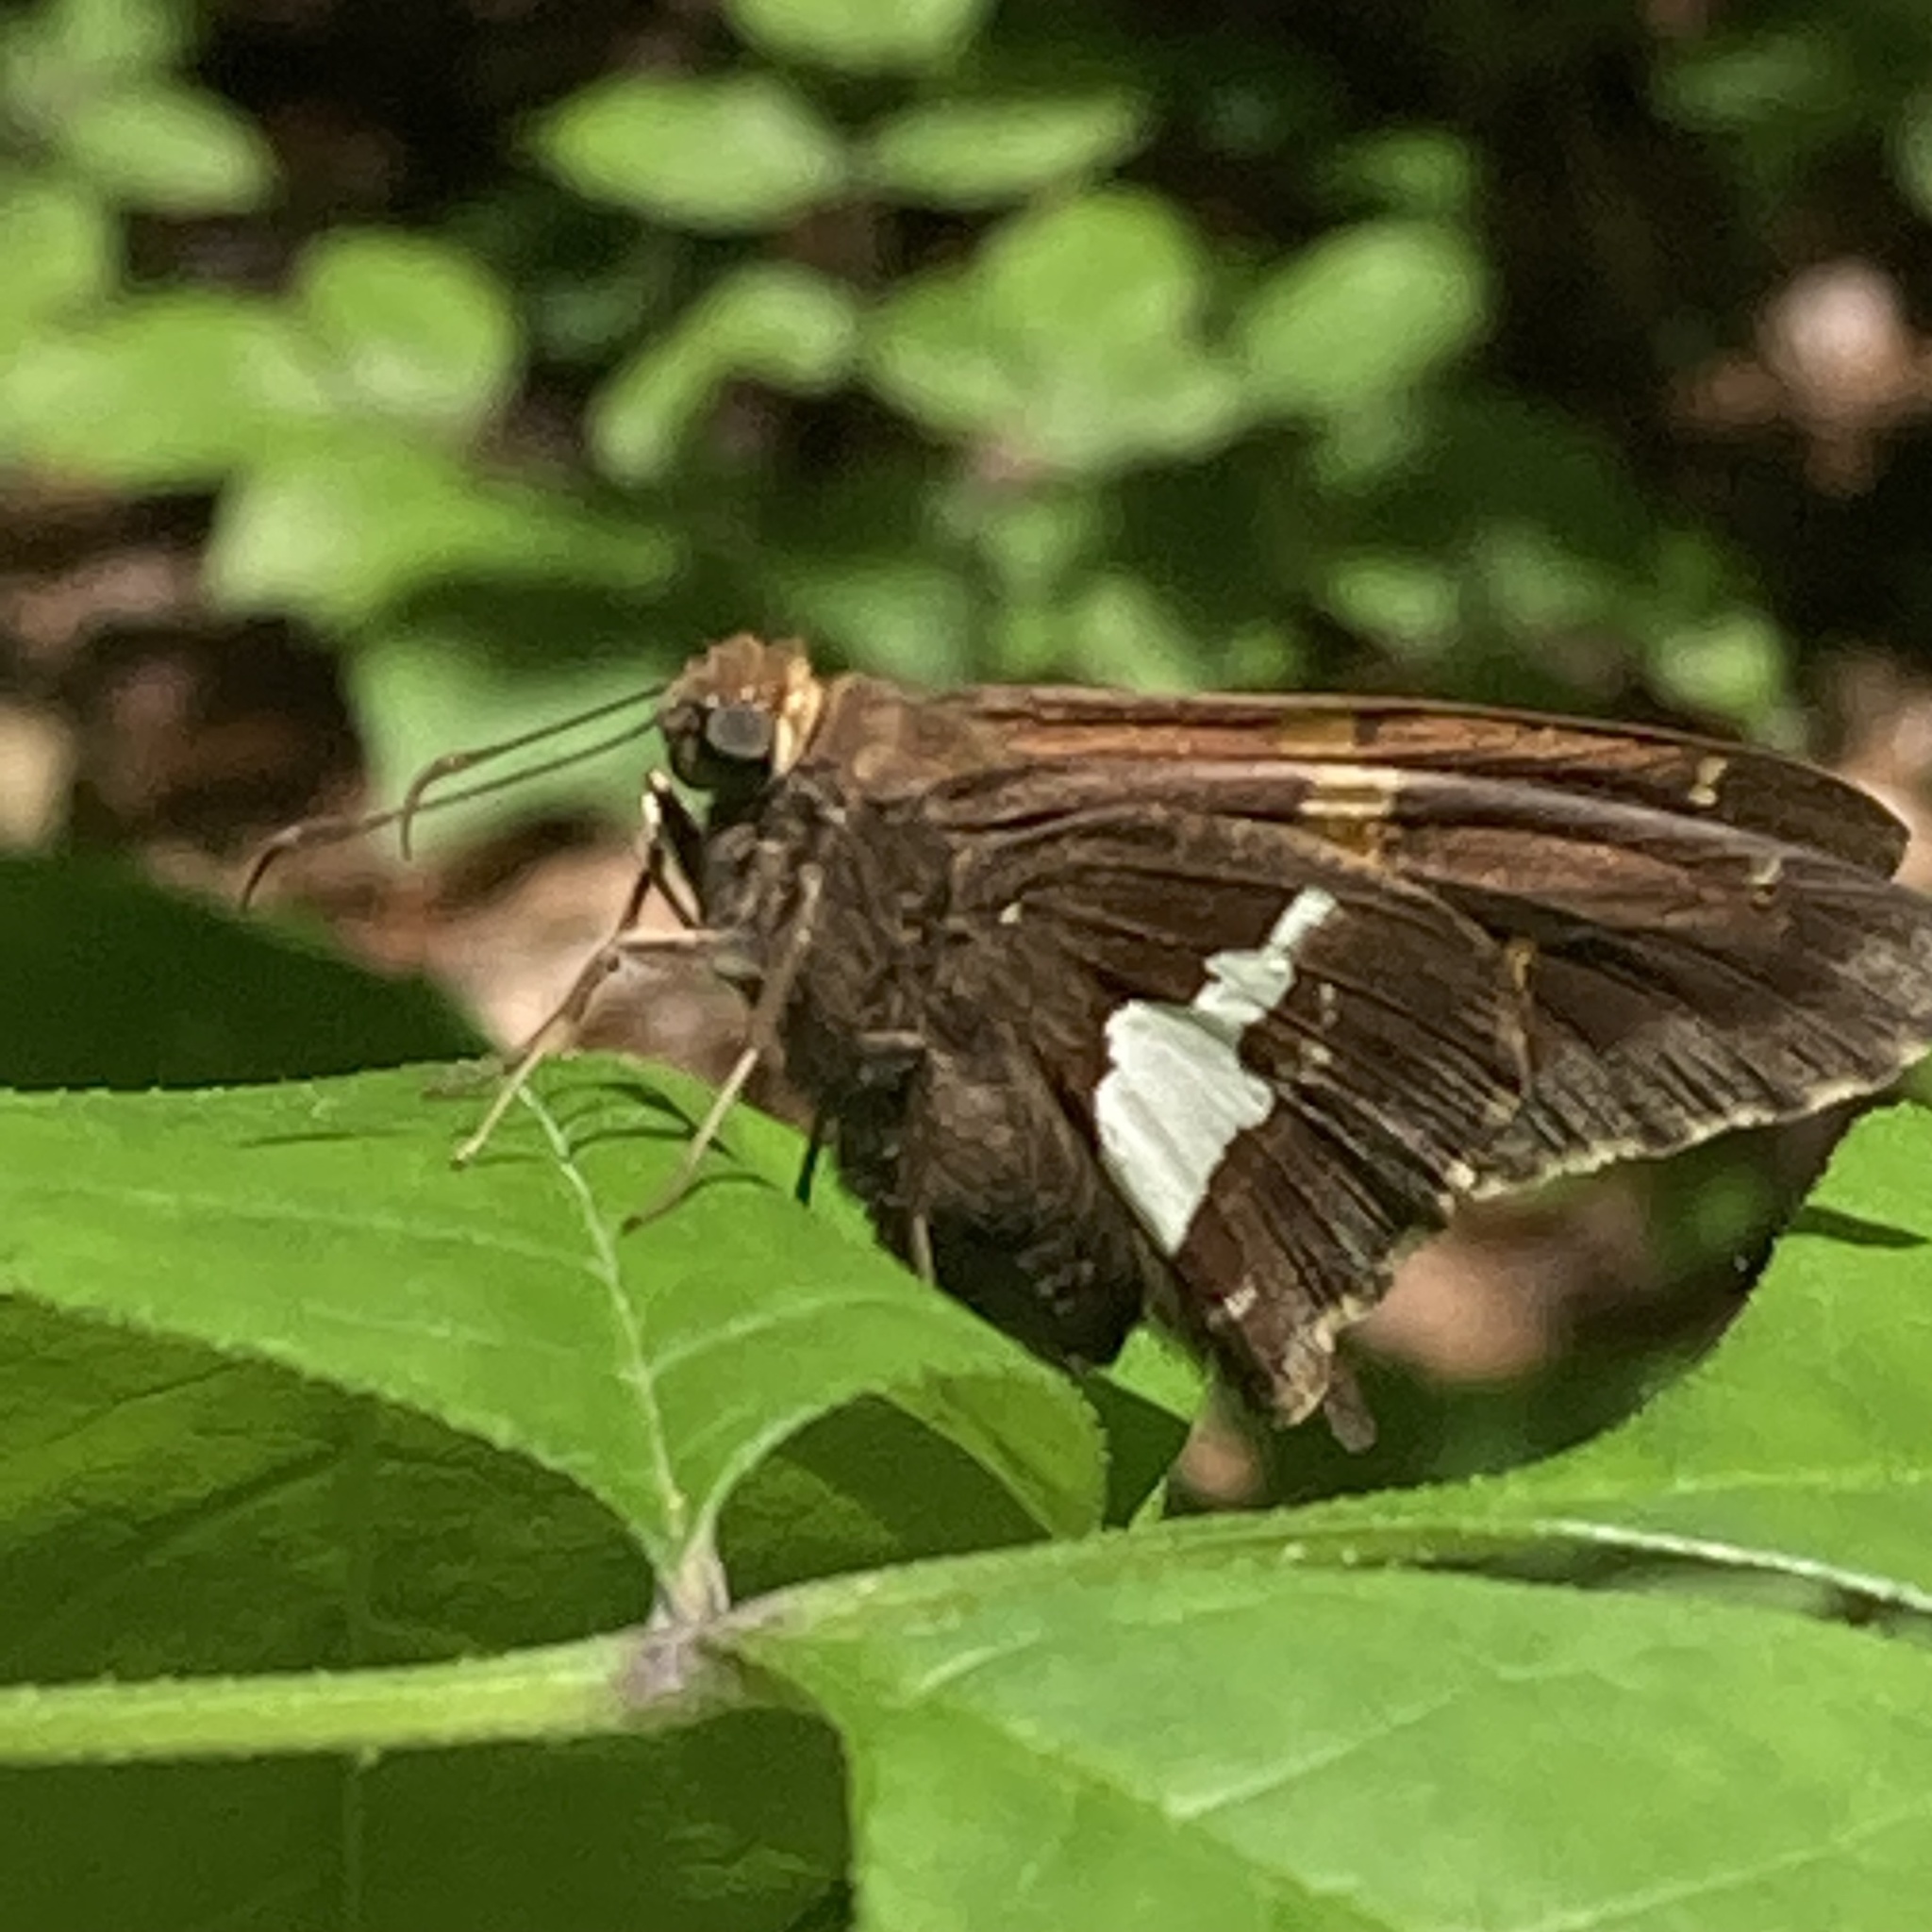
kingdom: Animalia
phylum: Arthropoda
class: Insecta
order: Lepidoptera
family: Hesperiidae
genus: Epargyreus
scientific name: Epargyreus clarus
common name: Silver-spotted skipper
